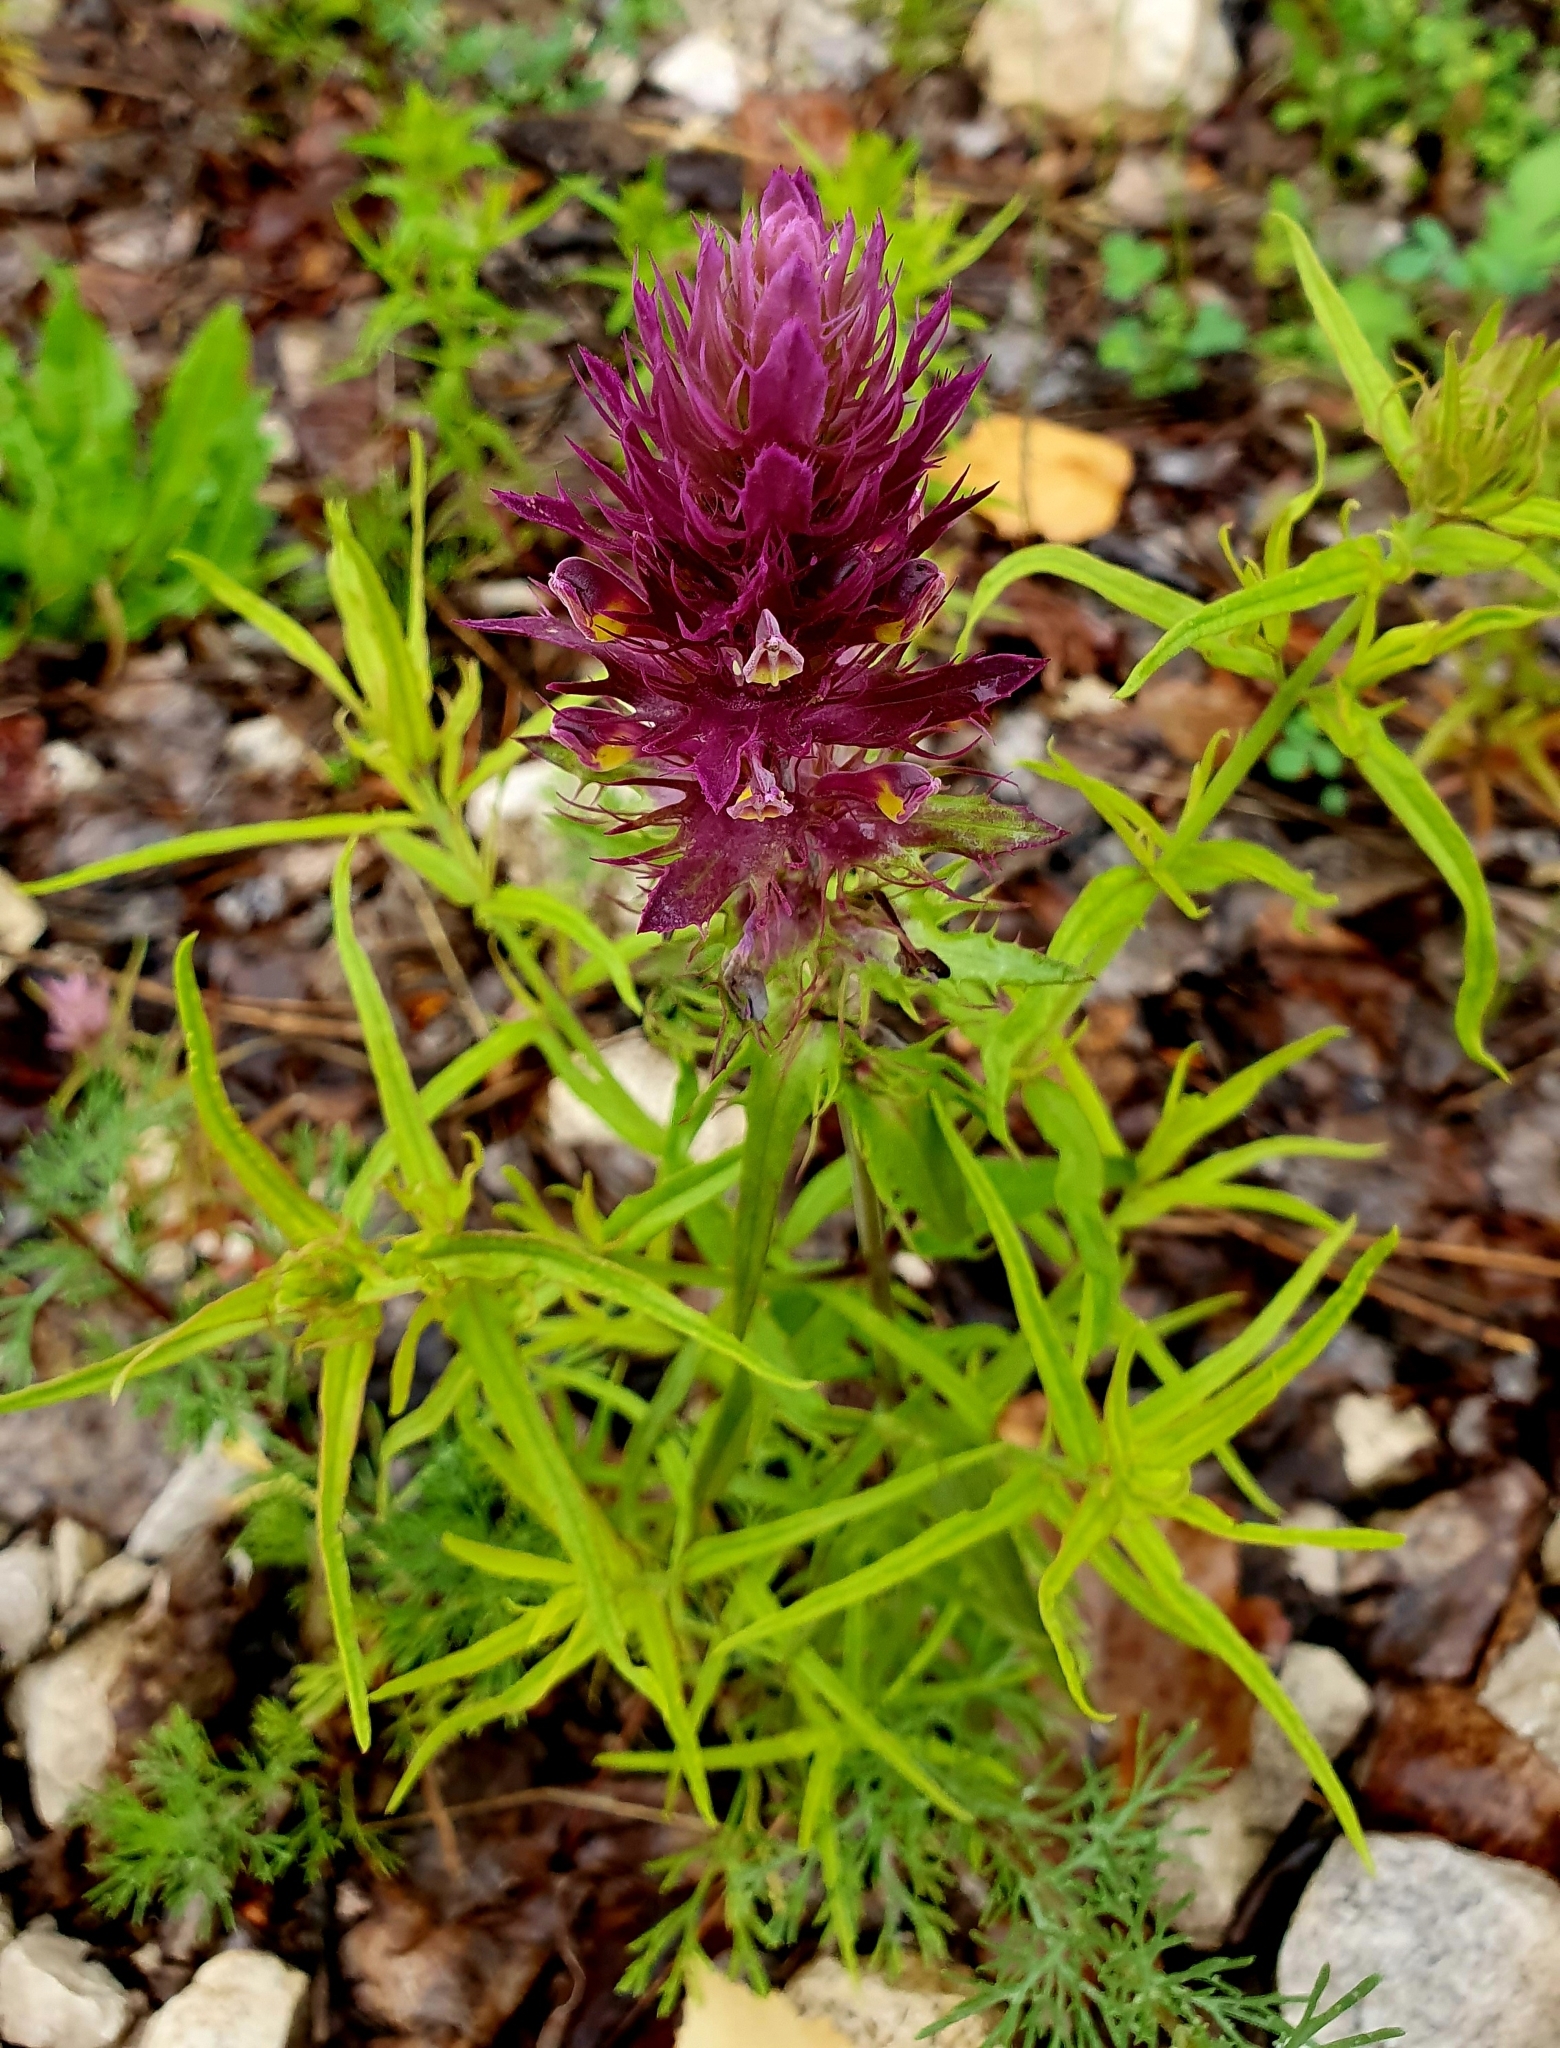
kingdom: Plantae
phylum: Tracheophyta
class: Magnoliopsida
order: Lamiales
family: Orobanchaceae
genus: Melampyrum
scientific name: Melampyrum arvense
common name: Field cow-wheat
